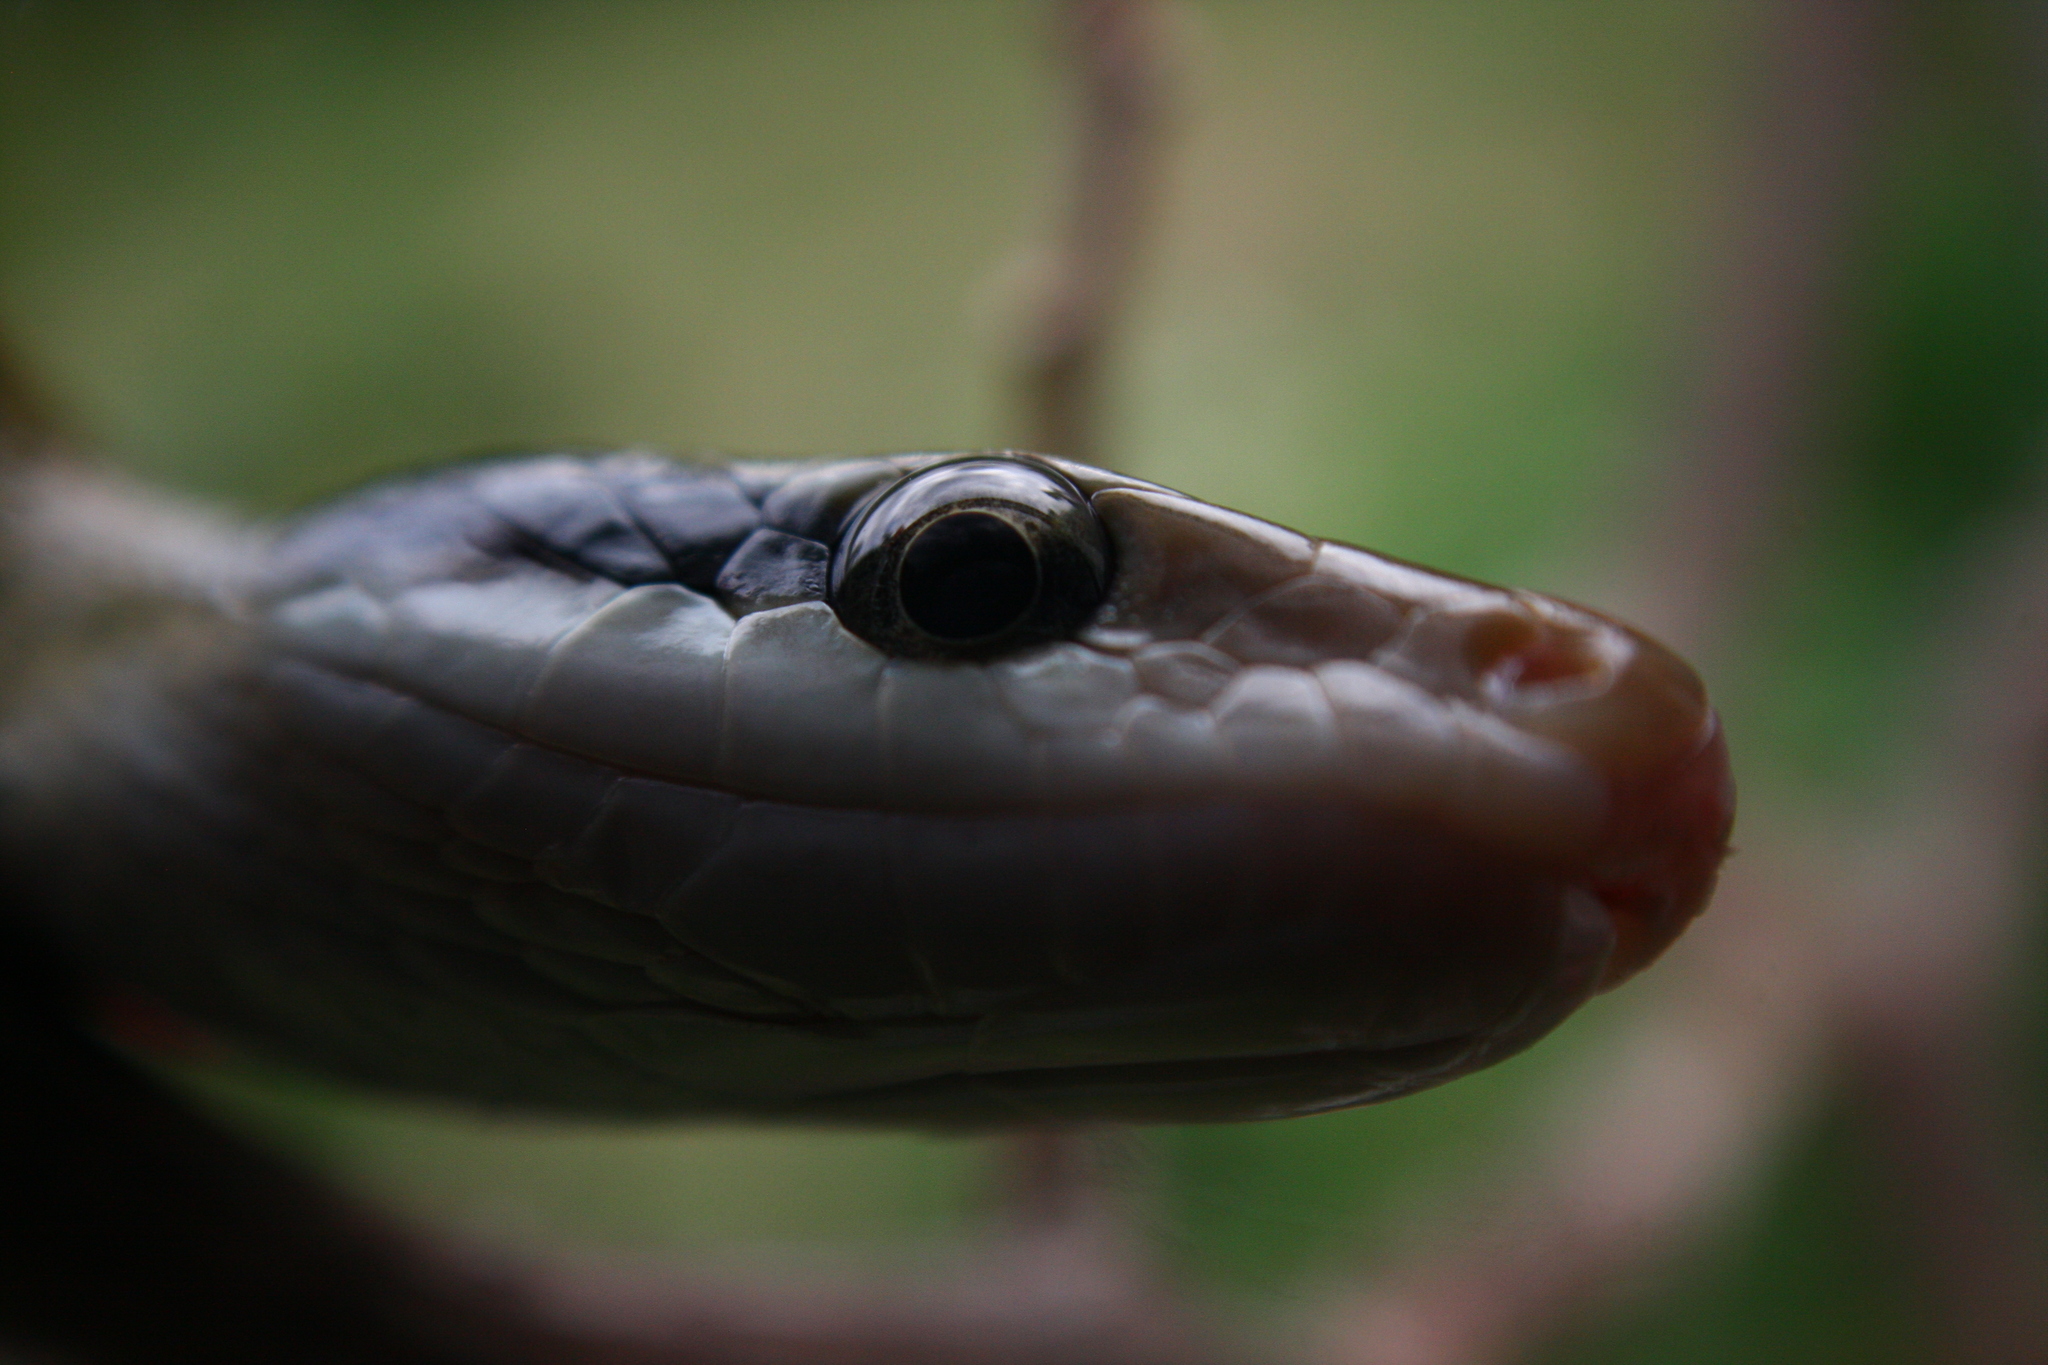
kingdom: Animalia
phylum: Chordata
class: Squamata
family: Colubridae
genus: Elaphe
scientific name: Elaphe taeniura
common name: Beauty snake
